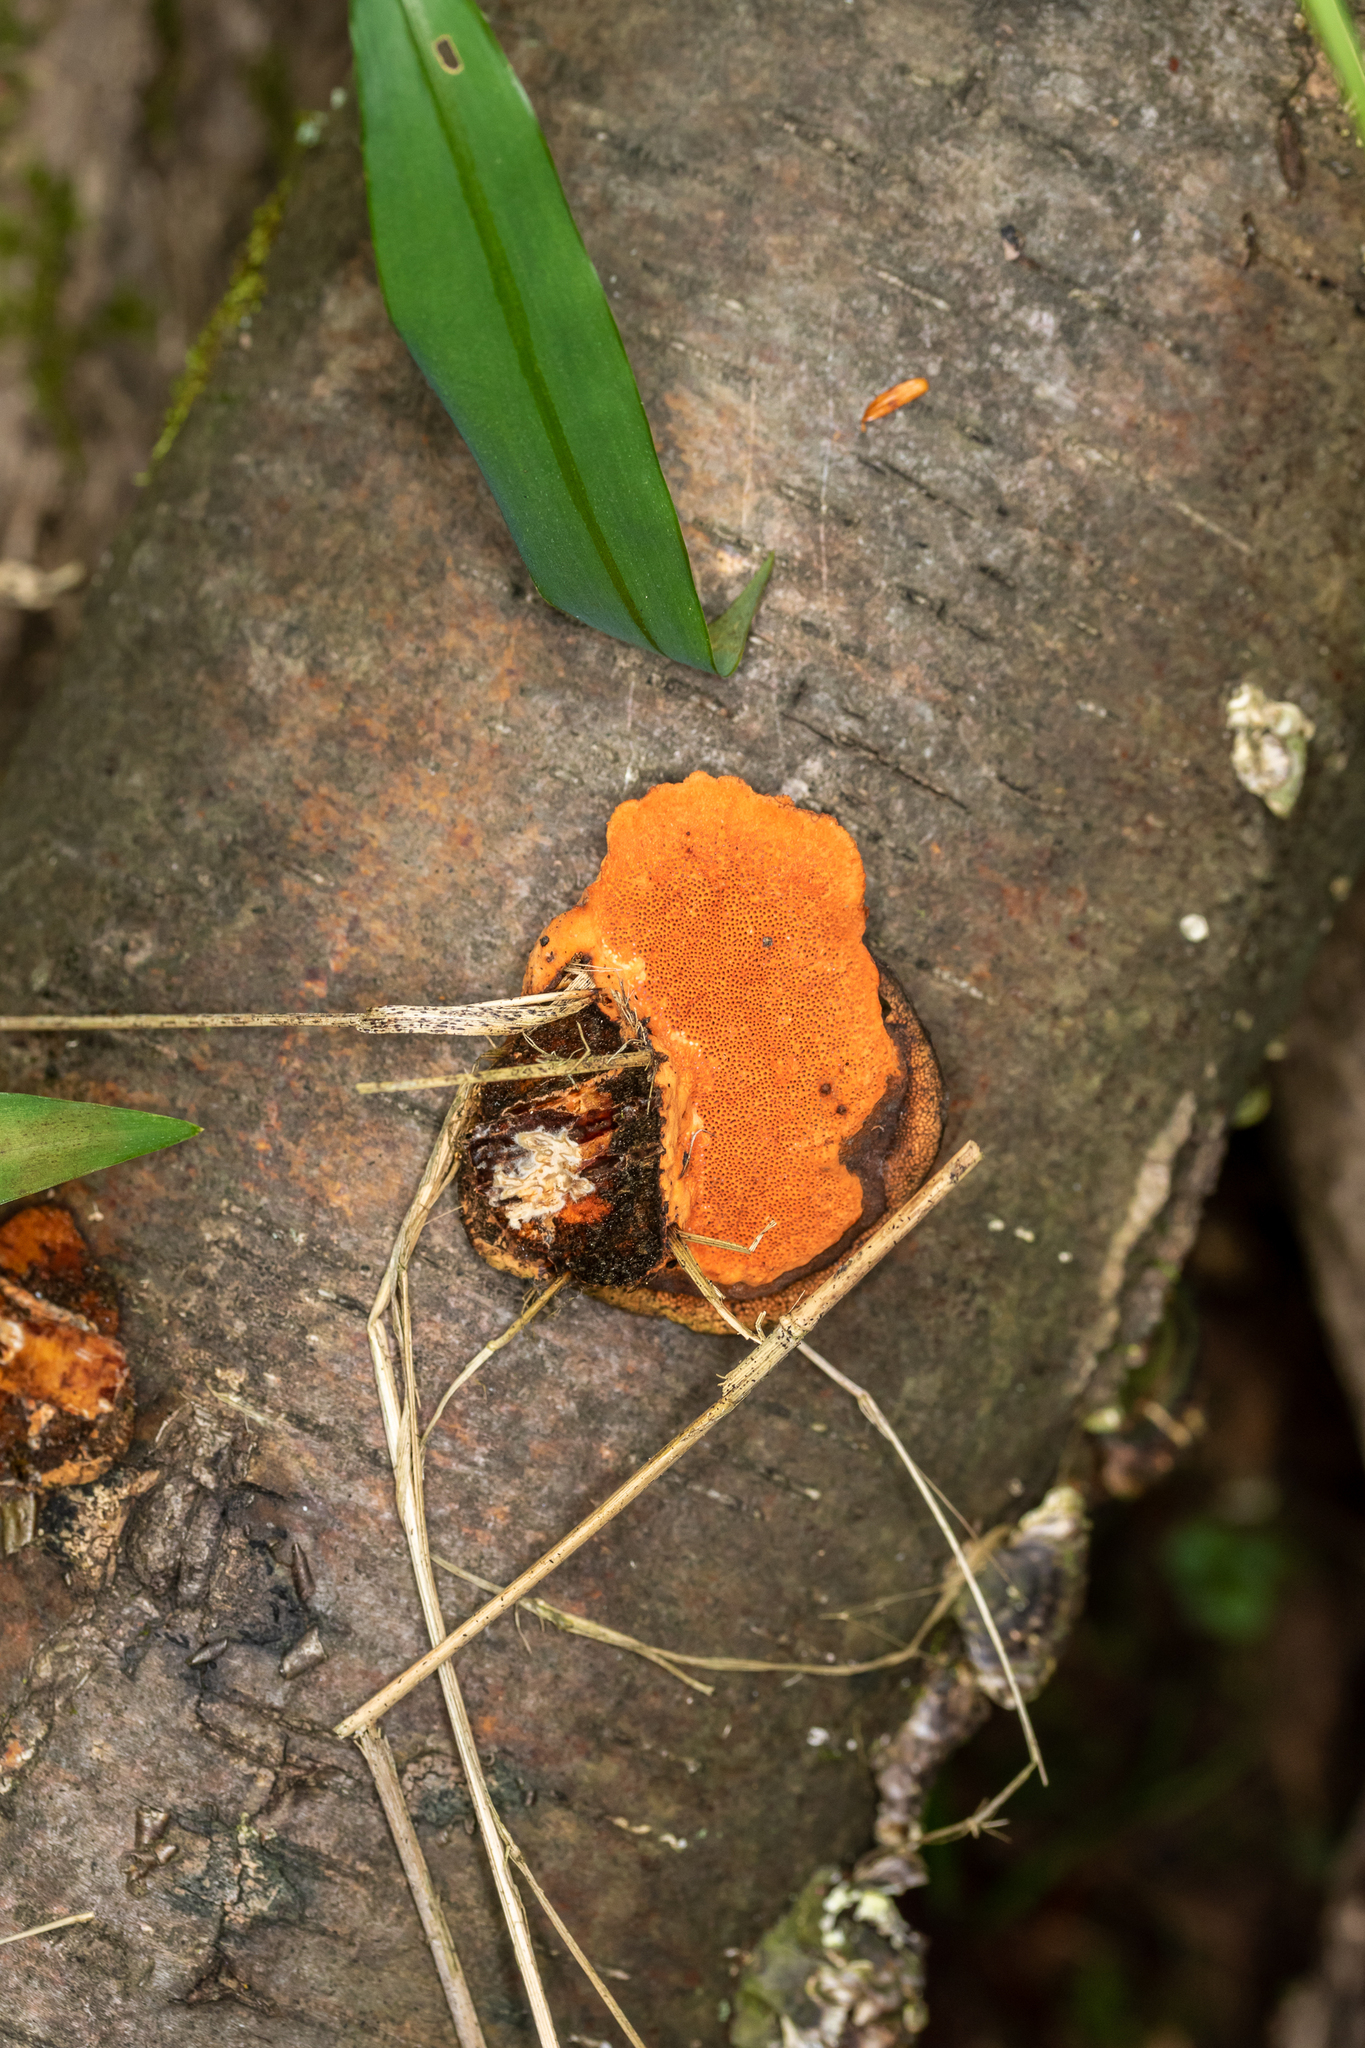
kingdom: Fungi
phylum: Basidiomycota
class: Agaricomycetes
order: Polyporales
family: Polyporaceae
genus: Trametes
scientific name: Trametes cinnabarina
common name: Northern cinnabar polypore
